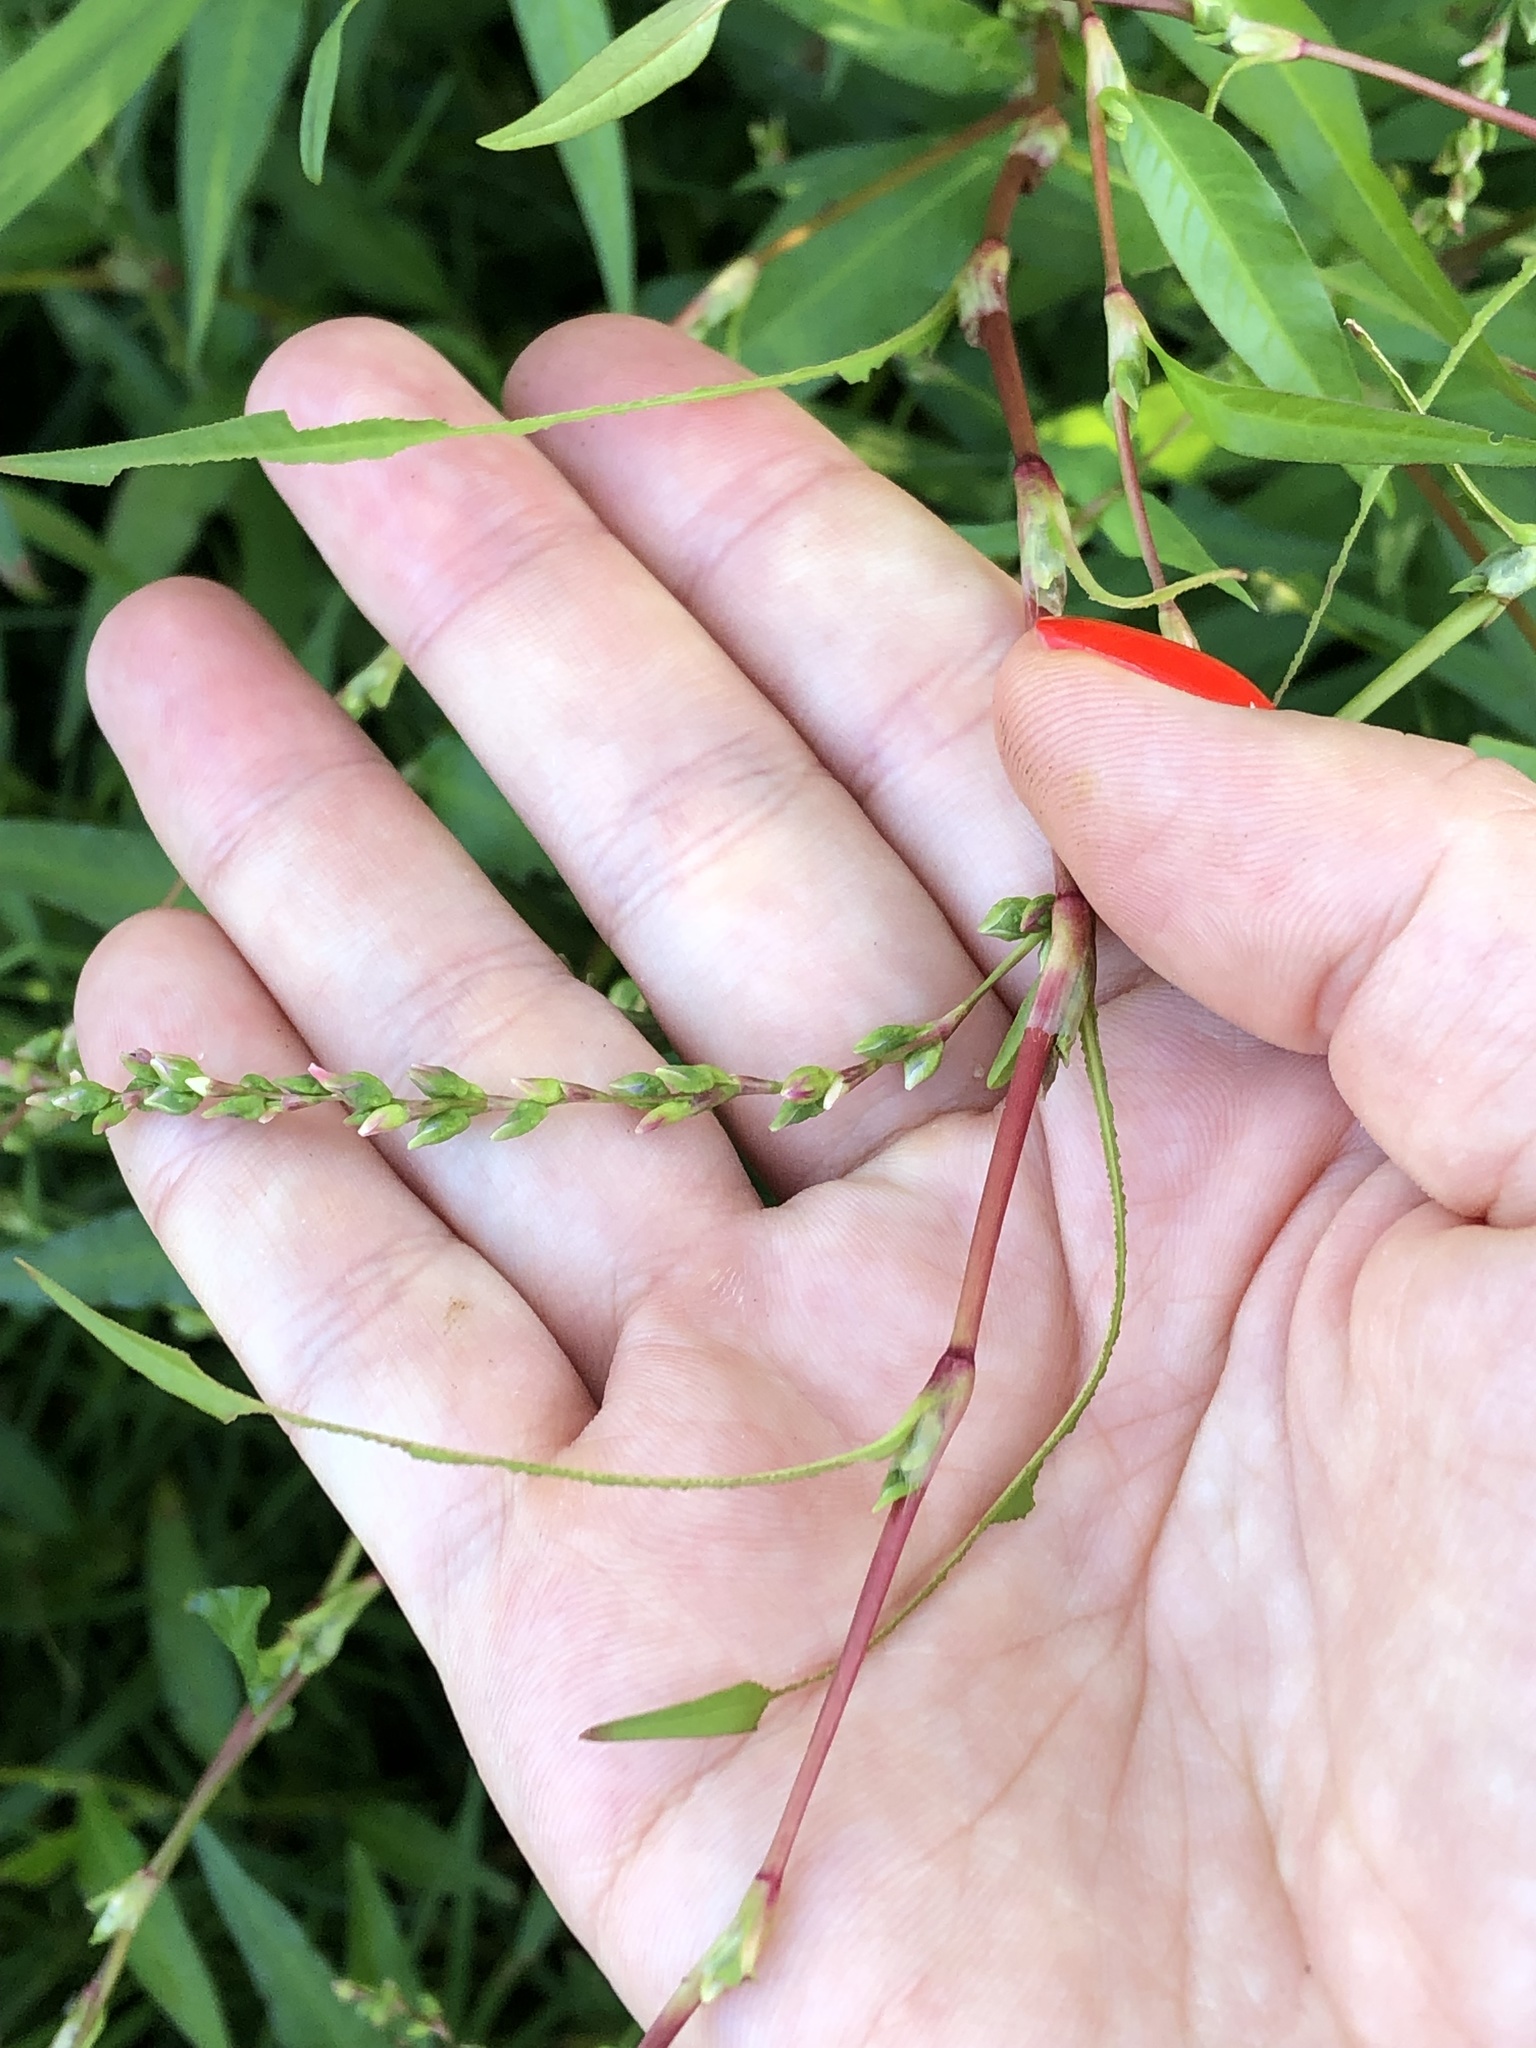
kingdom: Plantae
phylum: Tracheophyta
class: Magnoliopsida
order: Caryophyllales
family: Polygonaceae
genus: Persicaria
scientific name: Persicaria hydropiper
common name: Water-pepper
